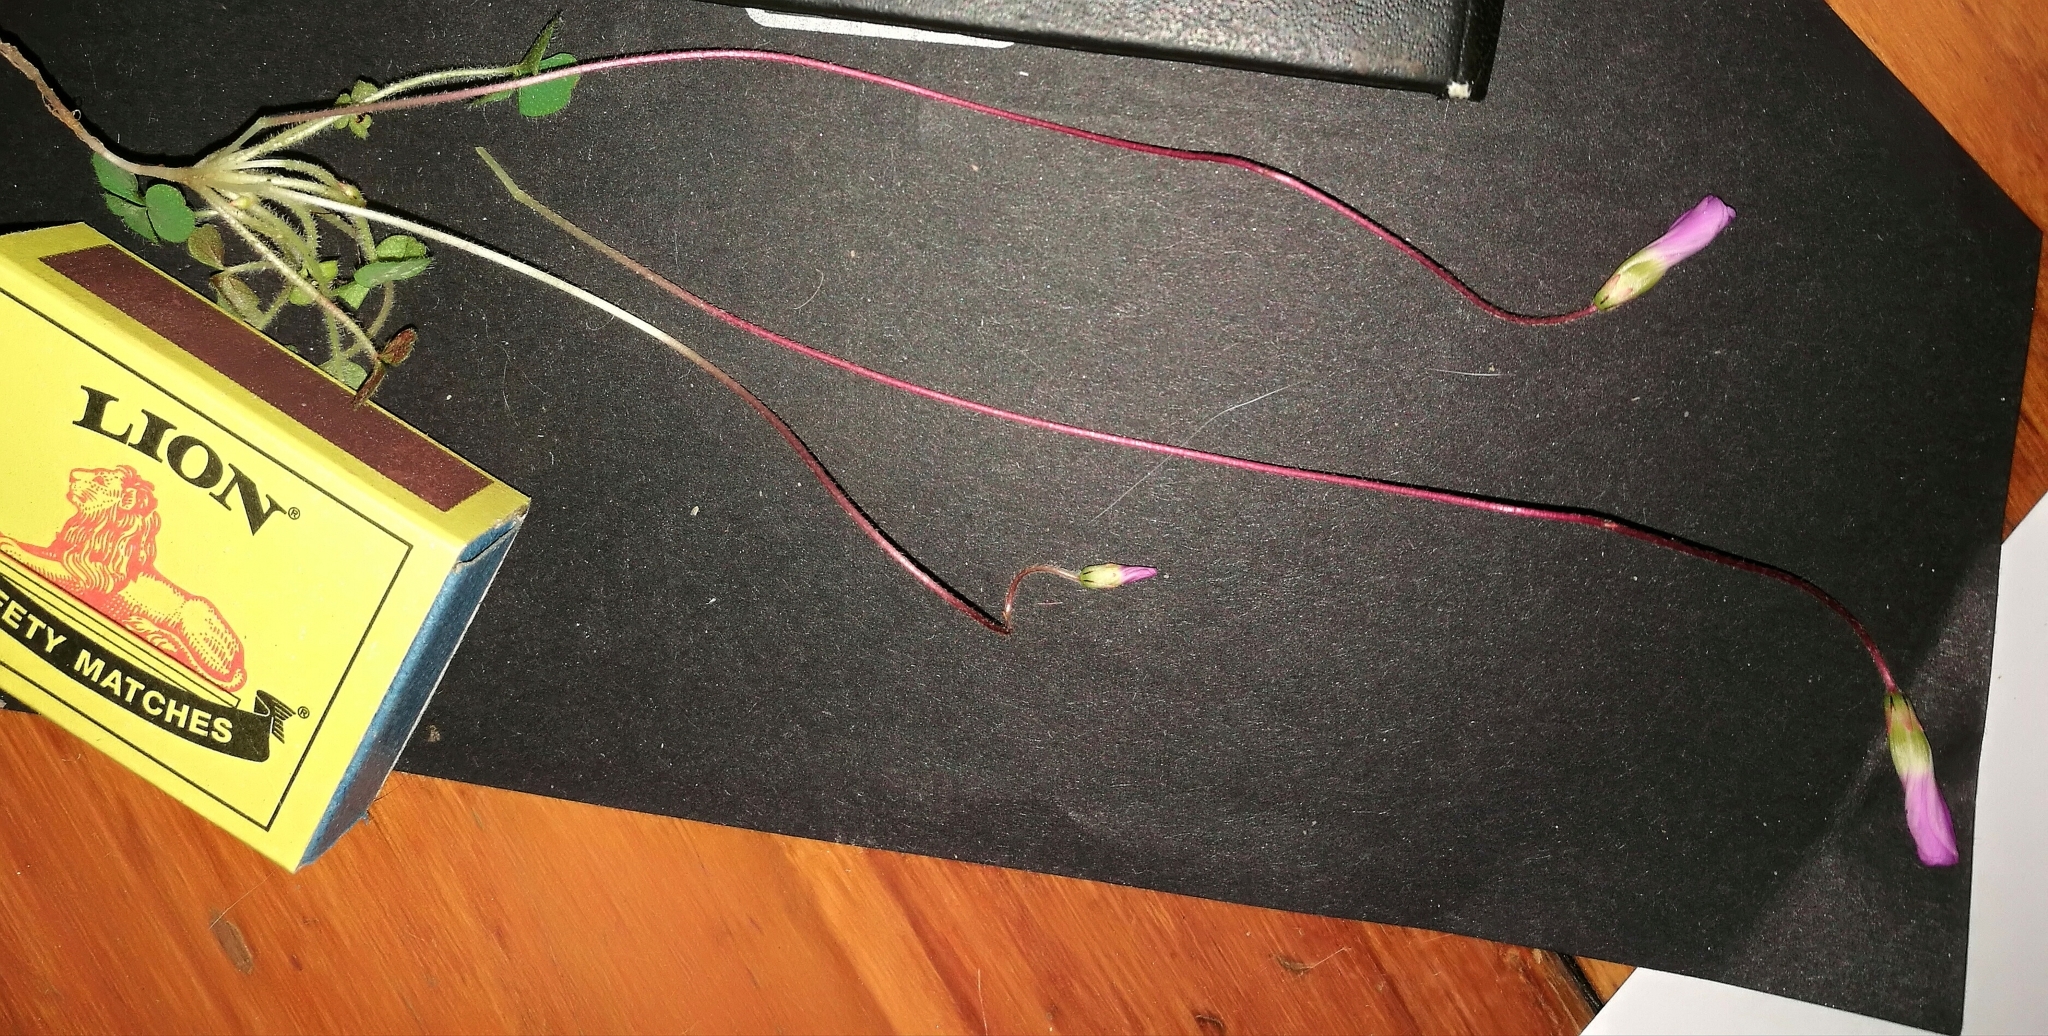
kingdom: Plantae
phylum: Tracheophyta
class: Magnoliopsida
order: Oxalidales
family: Oxalidaceae
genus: Oxalis
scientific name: Oxalis imbricata
